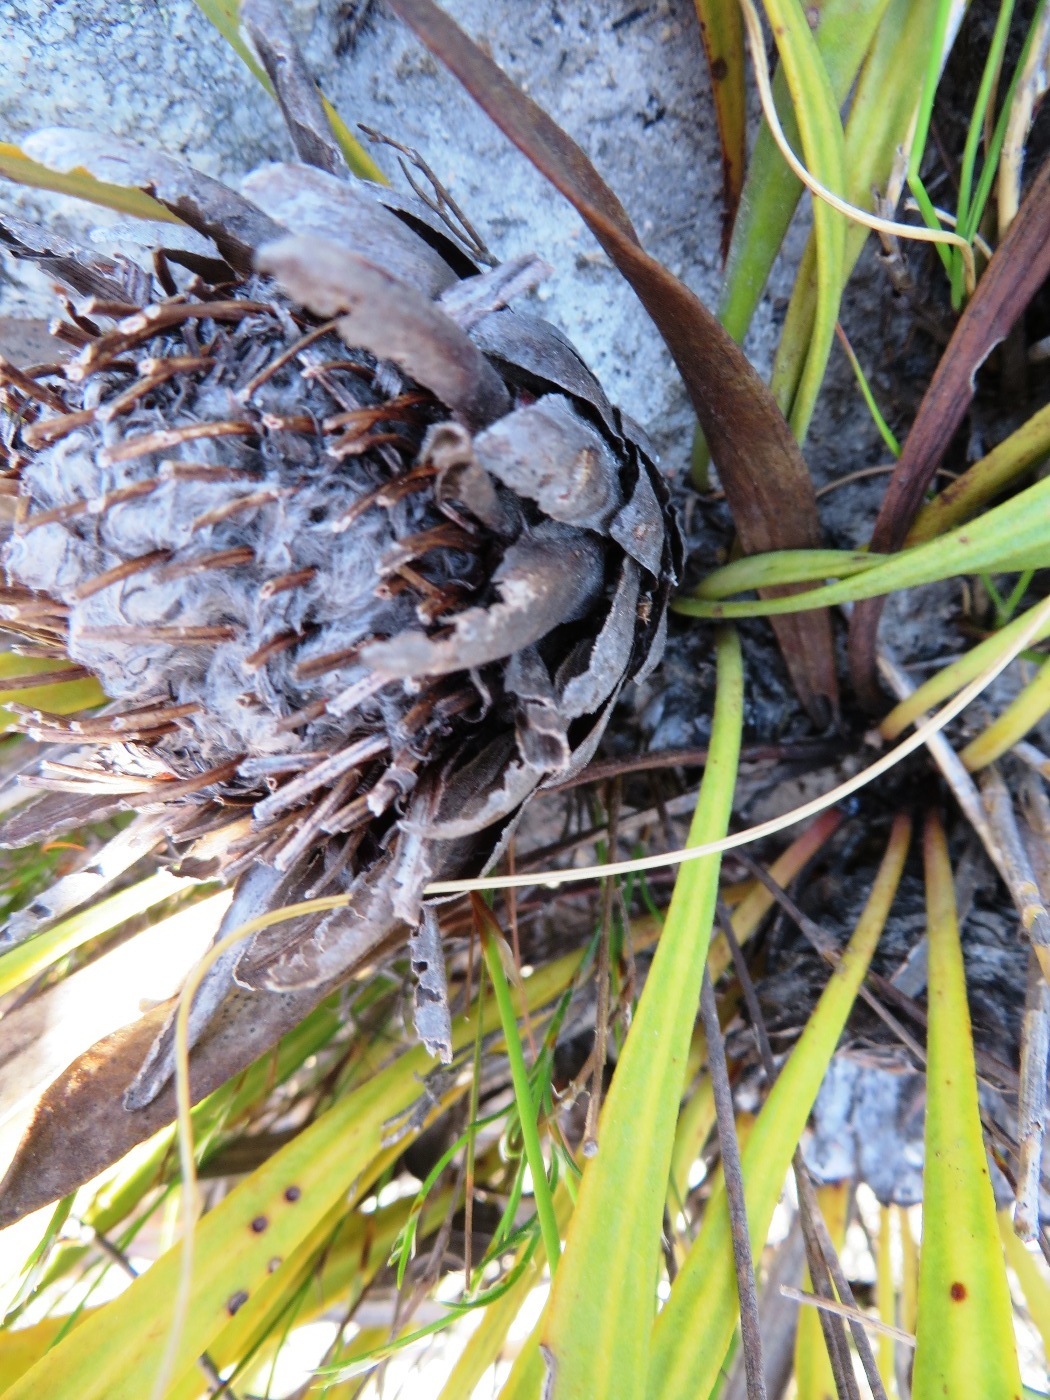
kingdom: Plantae
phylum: Tracheophyta
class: Magnoliopsida
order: Proteales
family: Proteaceae
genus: Protea
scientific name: Protea scabra
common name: Sandpaper-leaf sugarbush
